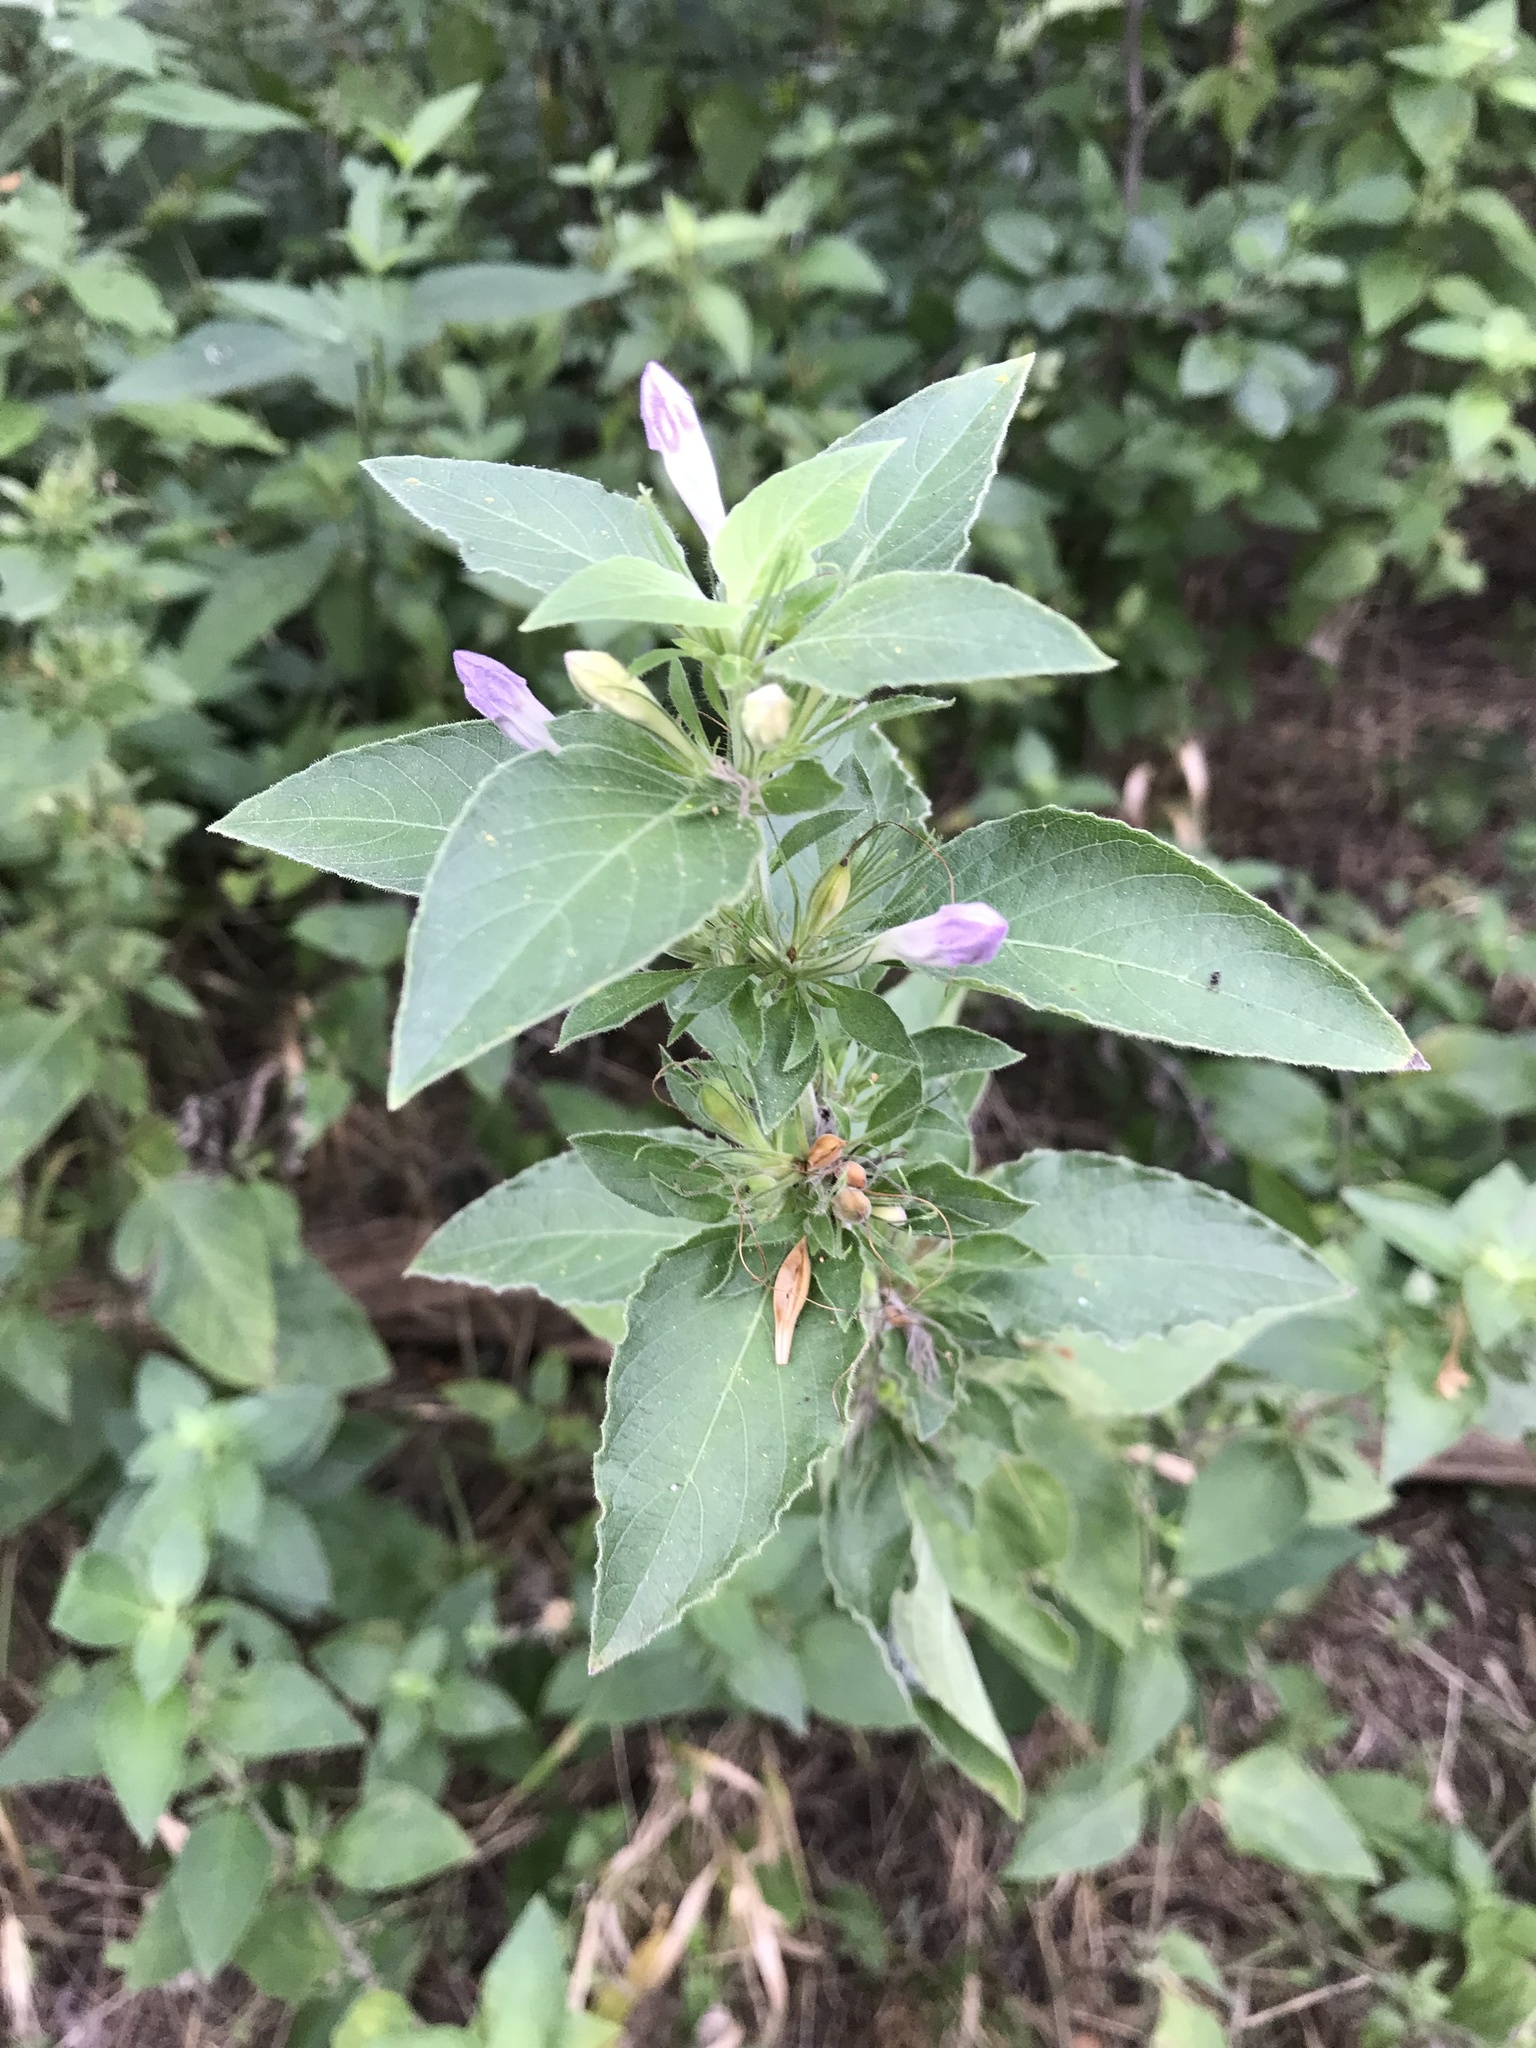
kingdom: Plantae
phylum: Tracheophyta
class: Magnoliopsida
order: Lamiales
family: Acanthaceae
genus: Ruellia
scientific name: Ruellia drummondiana
